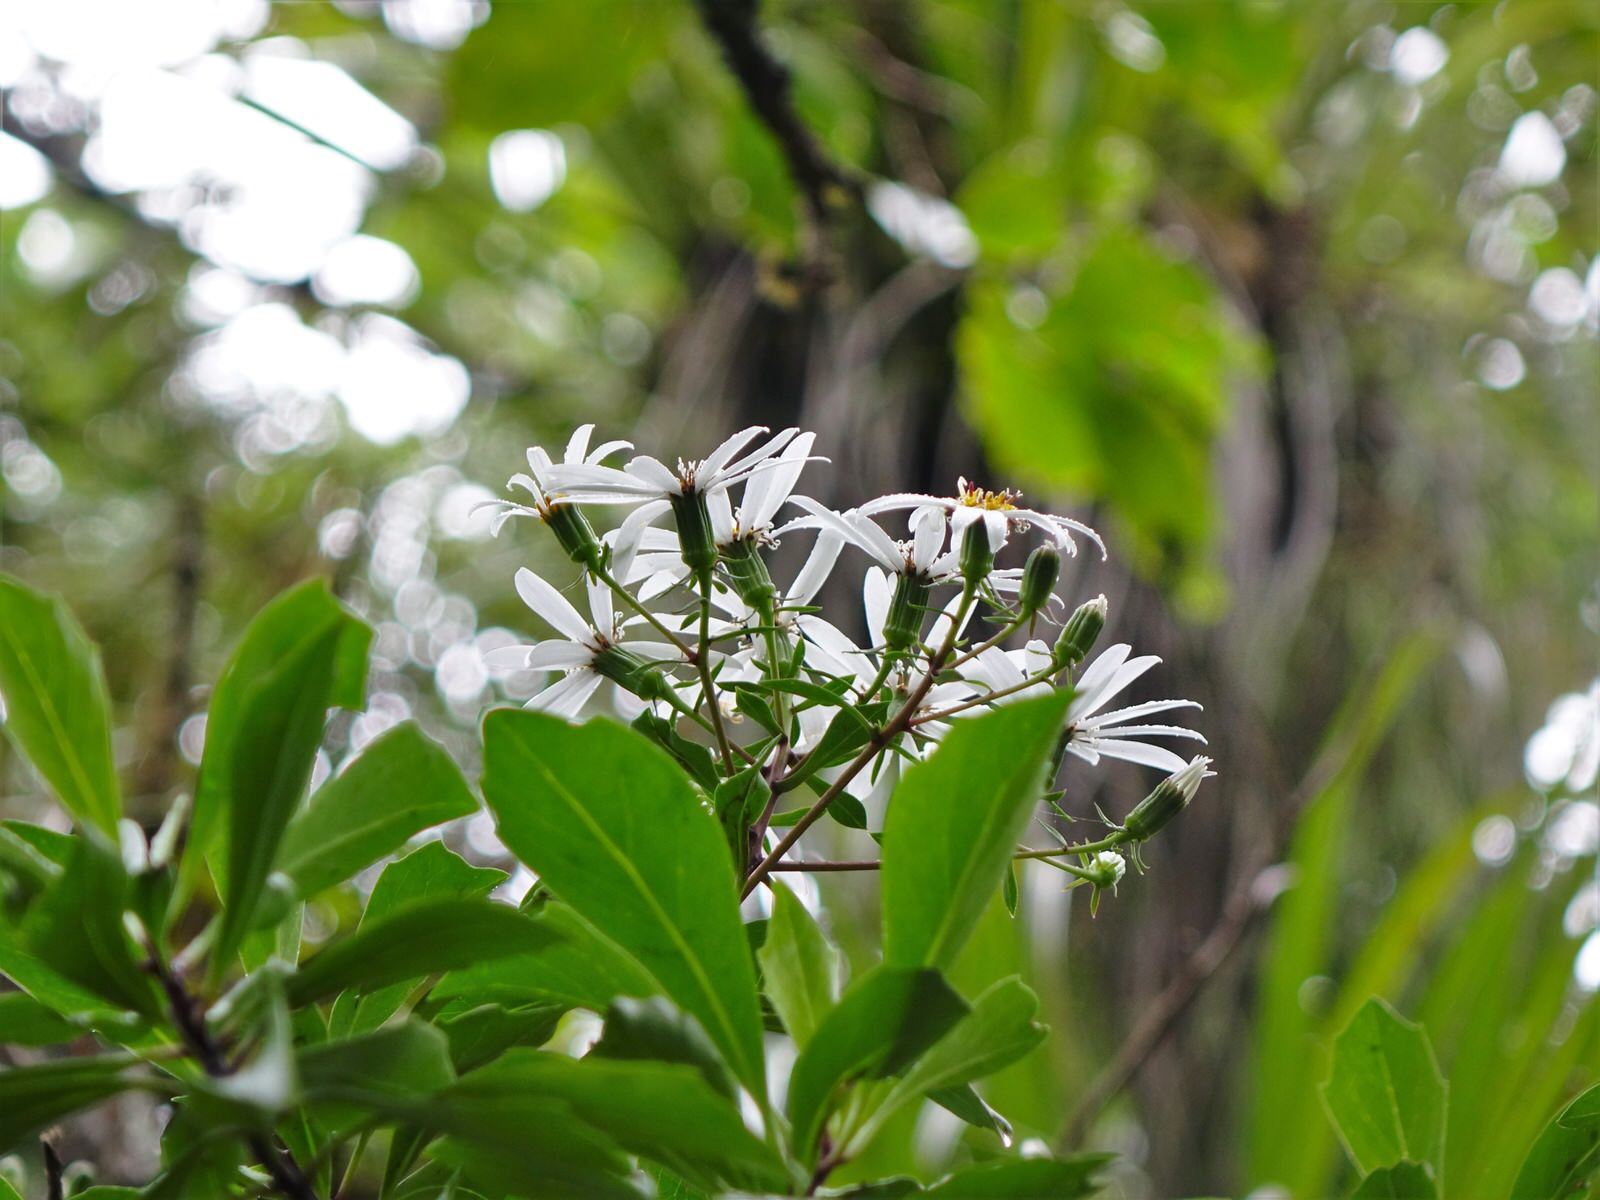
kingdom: Plantae
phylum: Tracheophyta
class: Magnoliopsida
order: Asterales
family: Asteraceae
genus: Brachyglottis
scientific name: Brachyglottis kirkii
